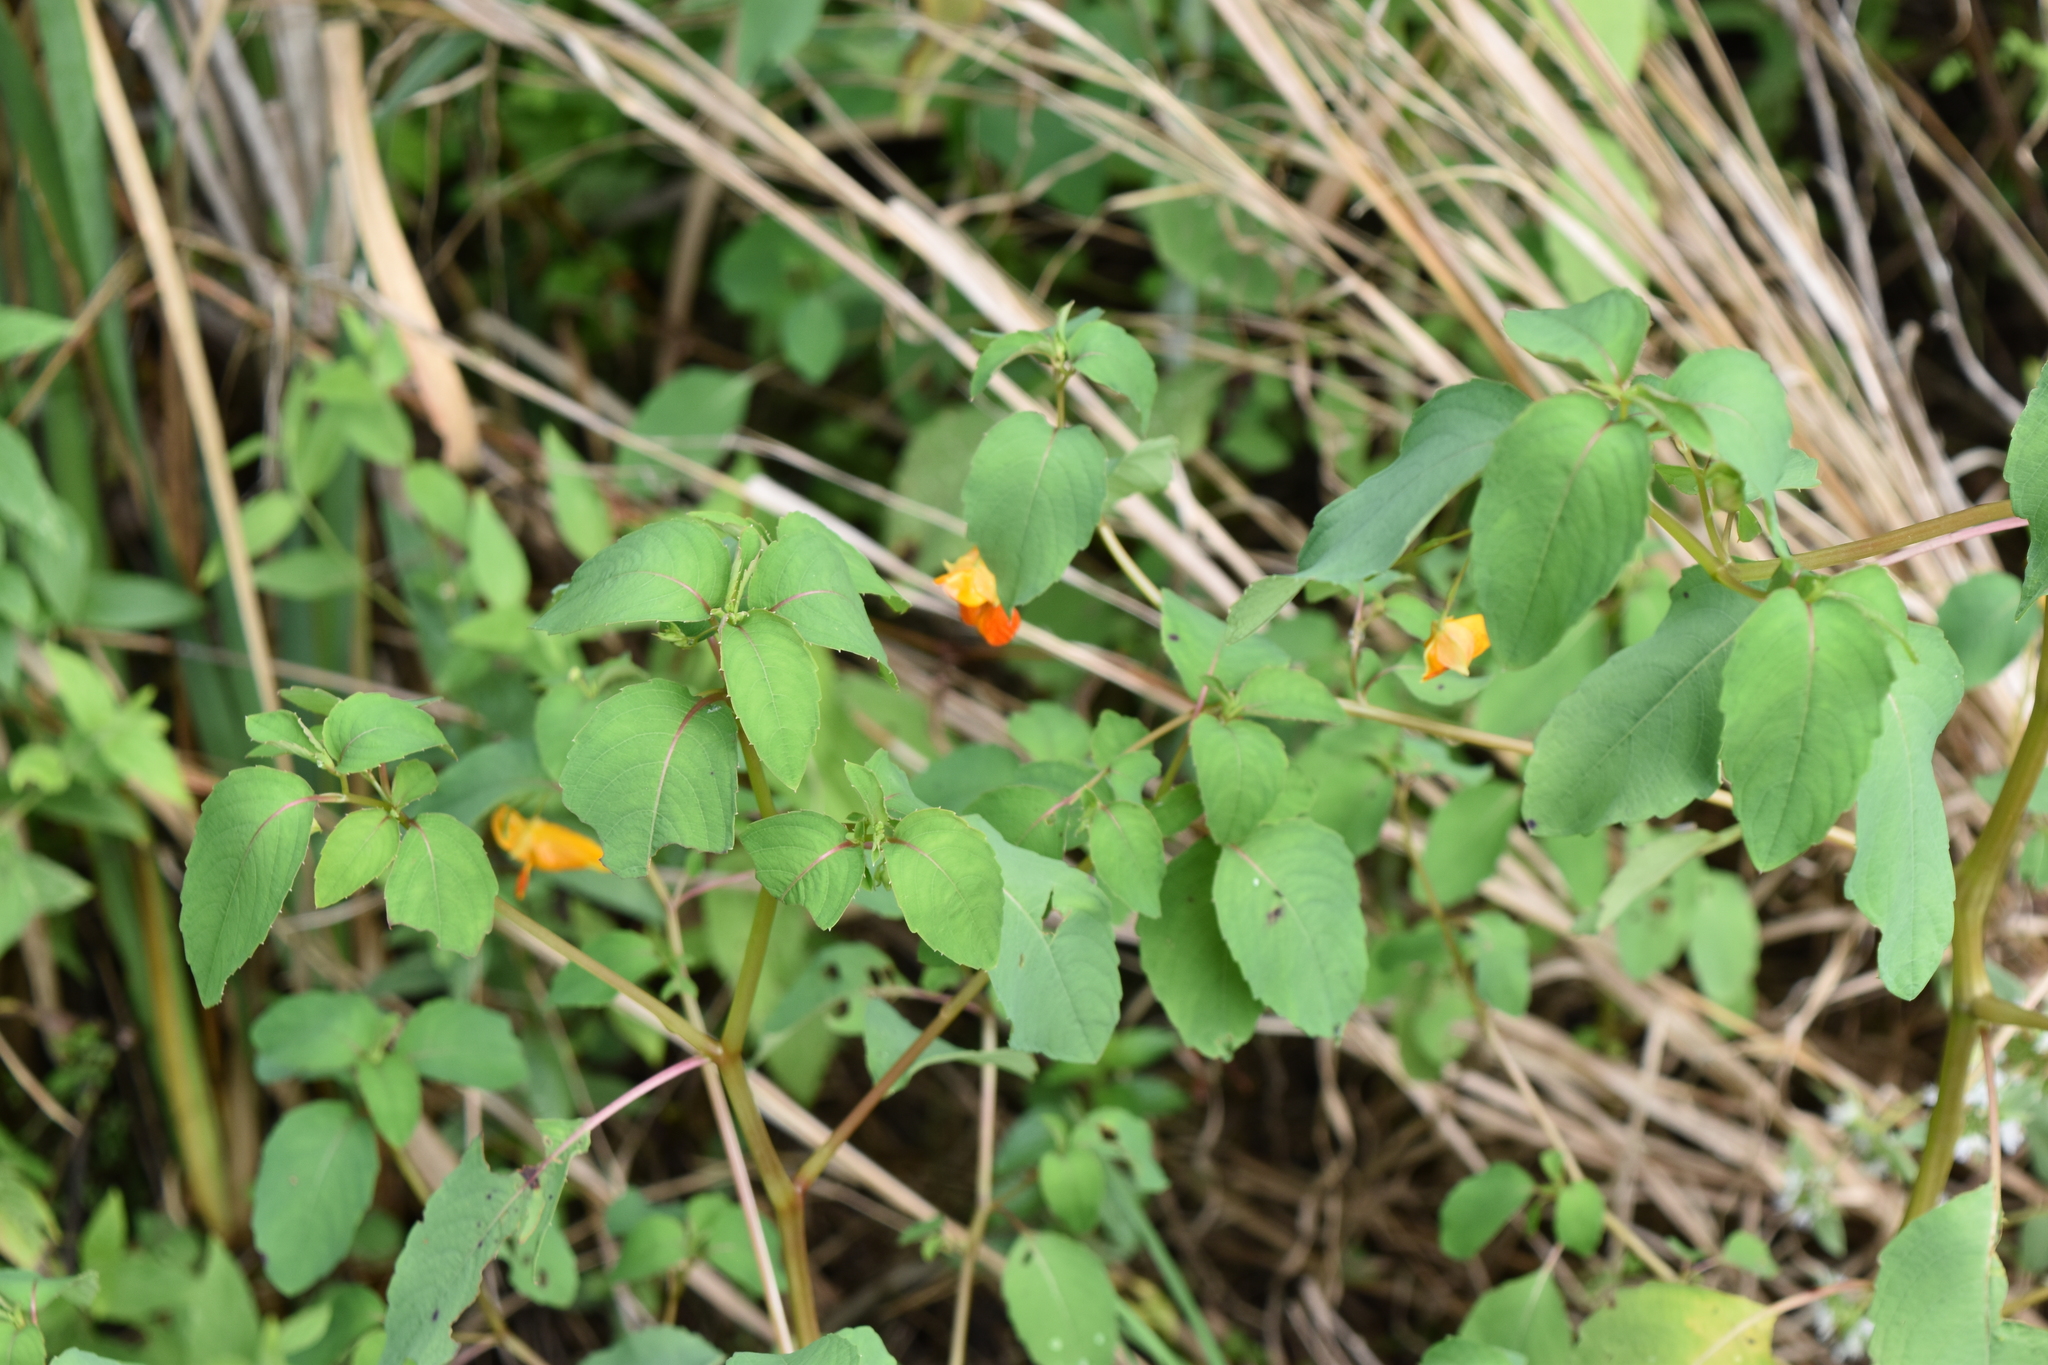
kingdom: Plantae
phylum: Tracheophyta
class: Magnoliopsida
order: Ericales
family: Balsaminaceae
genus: Impatiens
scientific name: Impatiens capensis
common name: Orange balsam
